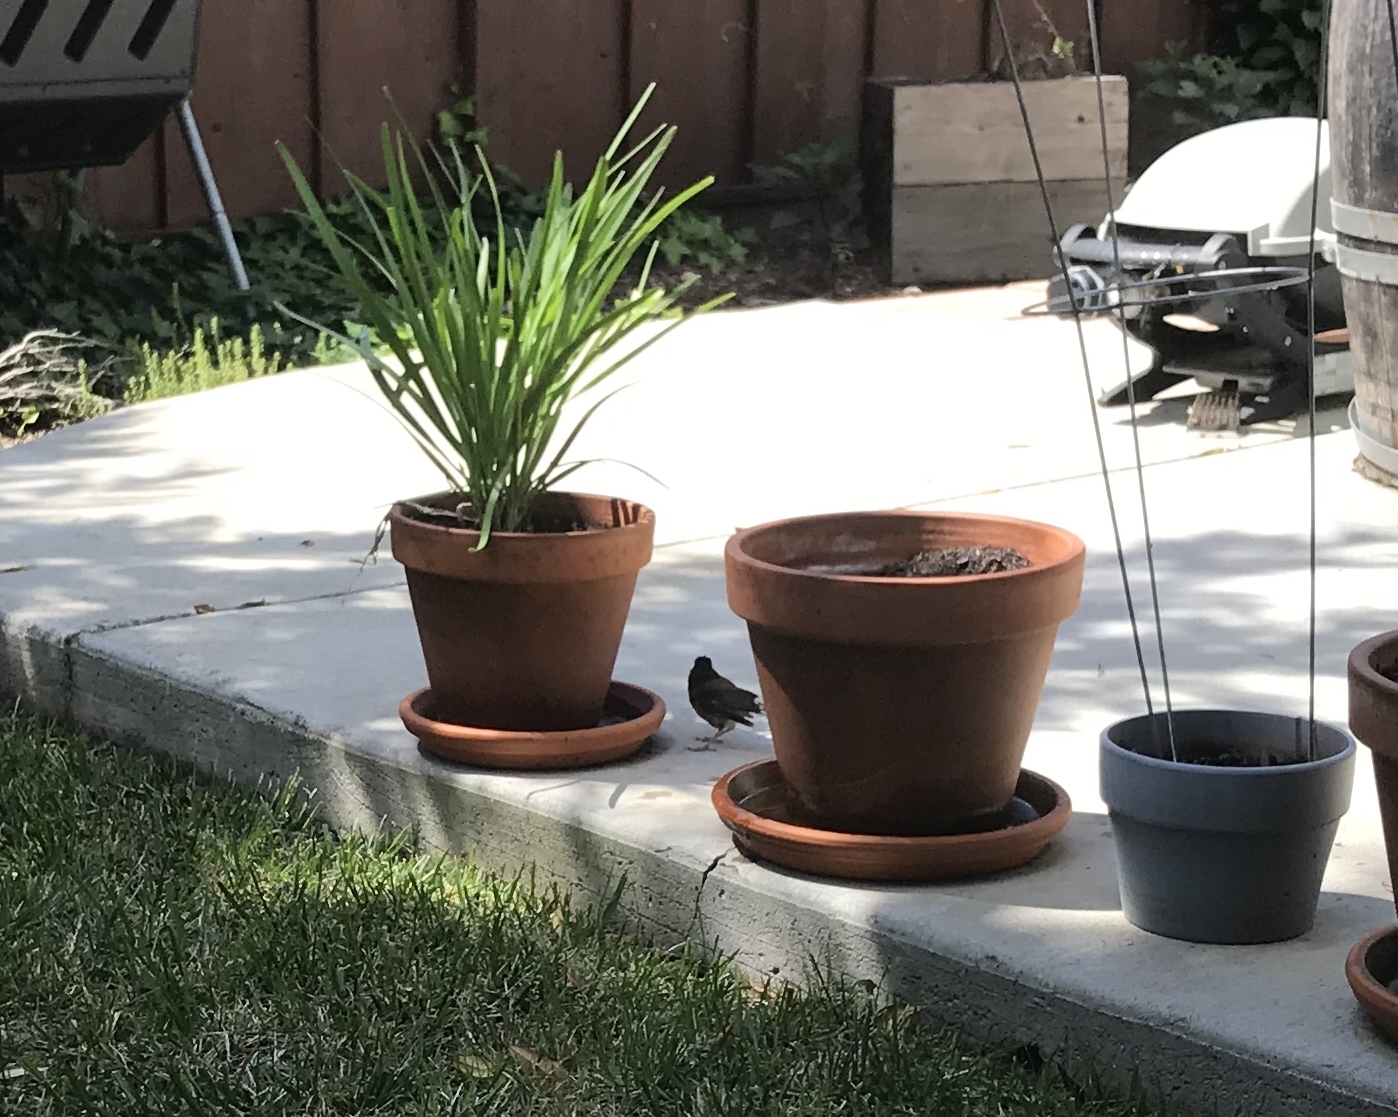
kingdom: Animalia
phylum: Chordata
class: Aves
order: Passeriformes
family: Passerellidae
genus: Junco
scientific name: Junco hyemalis
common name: Dark-eyed junco
